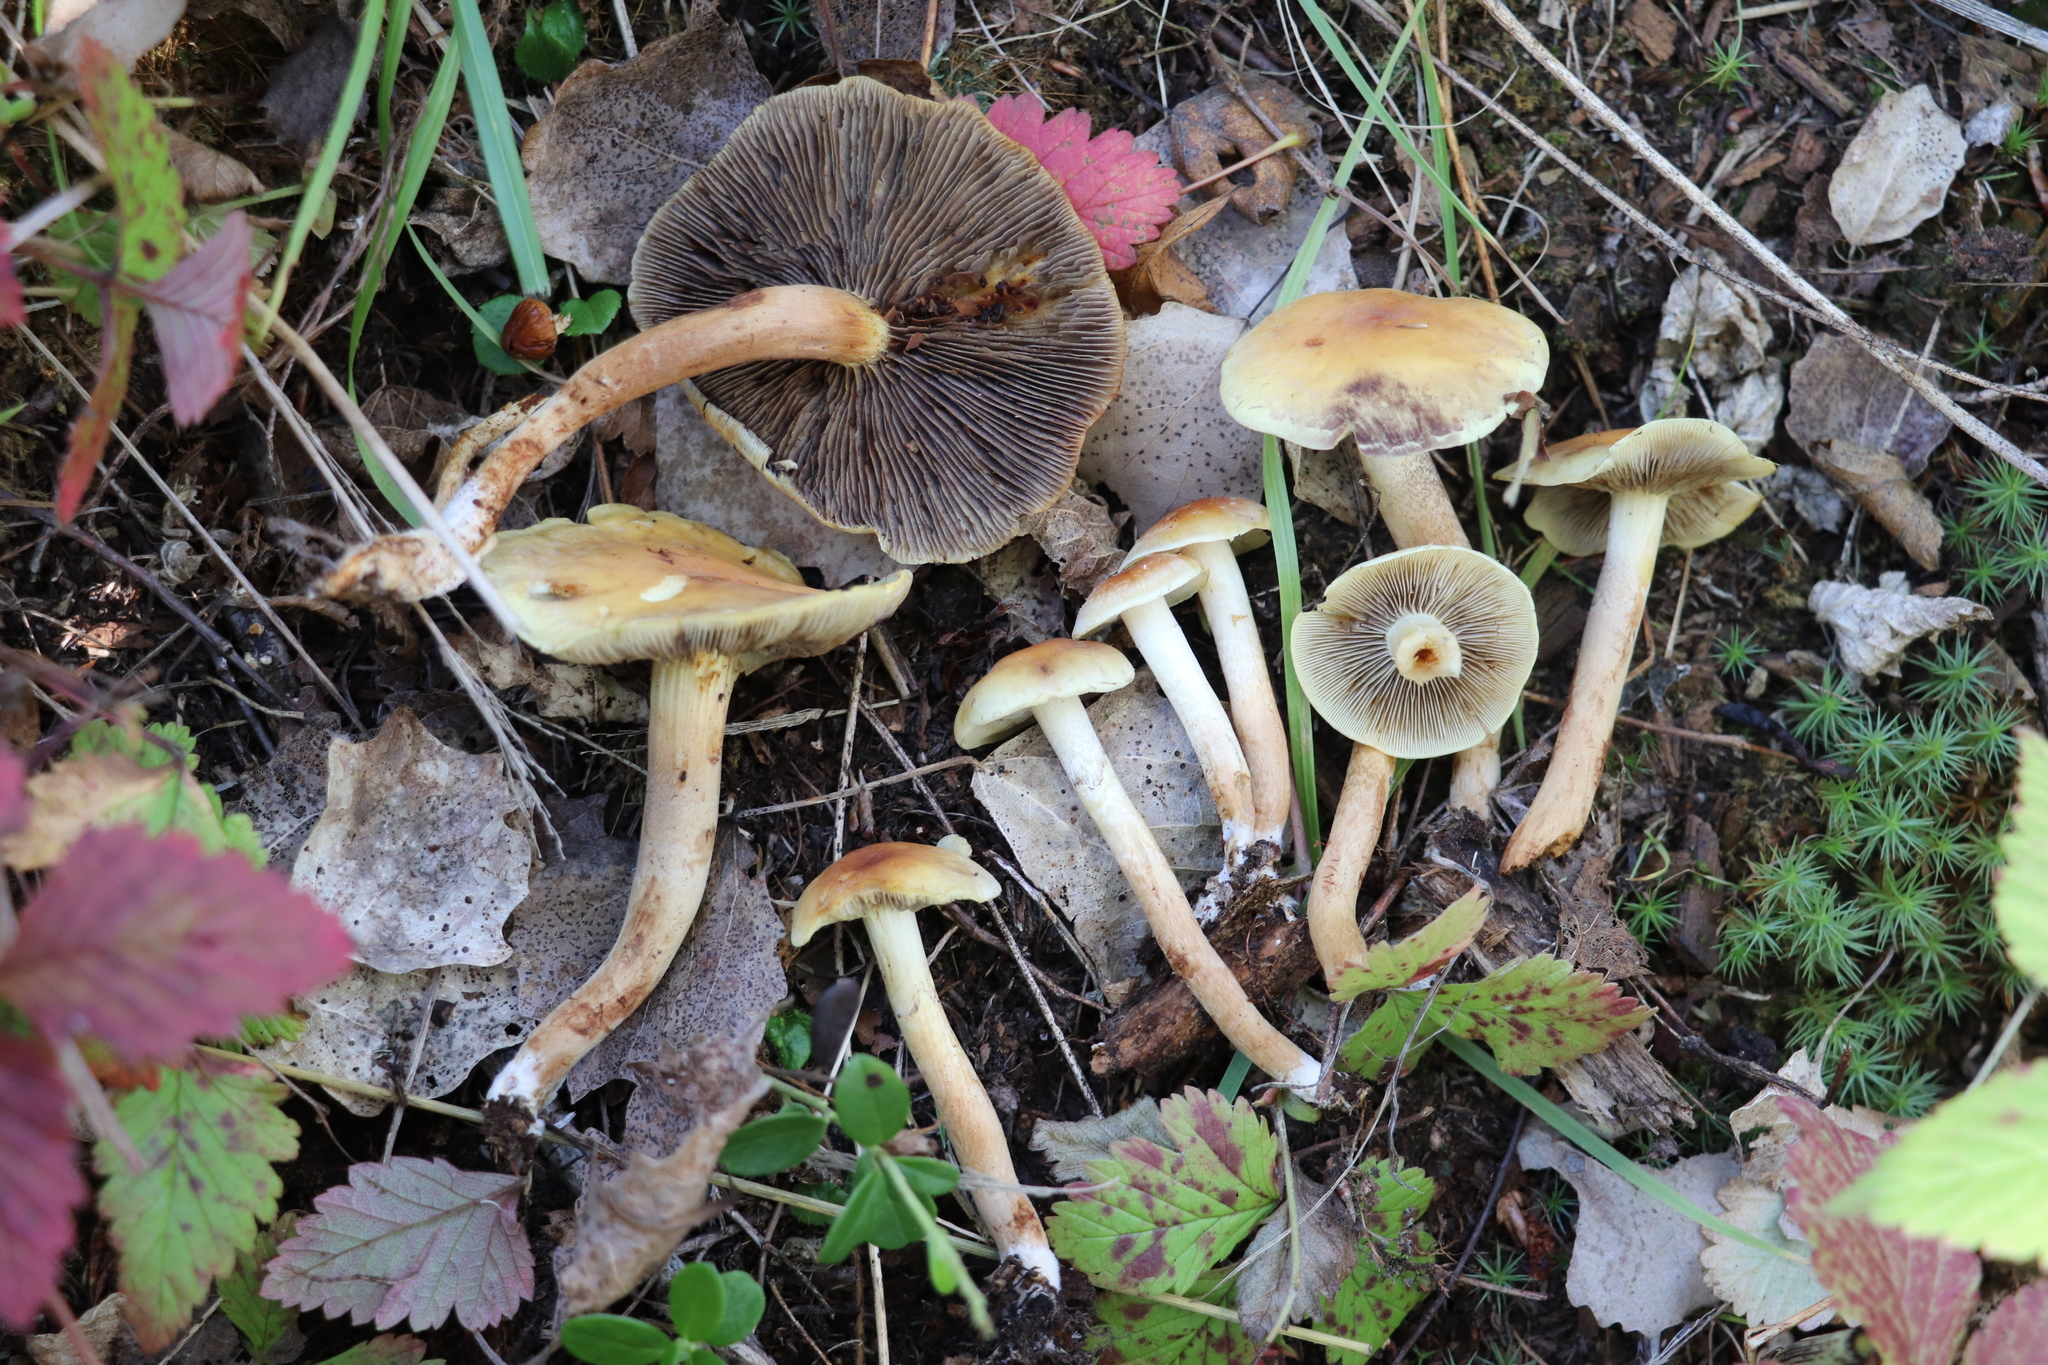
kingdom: Fungi
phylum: Basidiomycota
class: Agaricomycetes
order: Agaricales
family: Strophariaceae
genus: Hypholoma
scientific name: Hypholoma capnoides
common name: Conifer tuft
